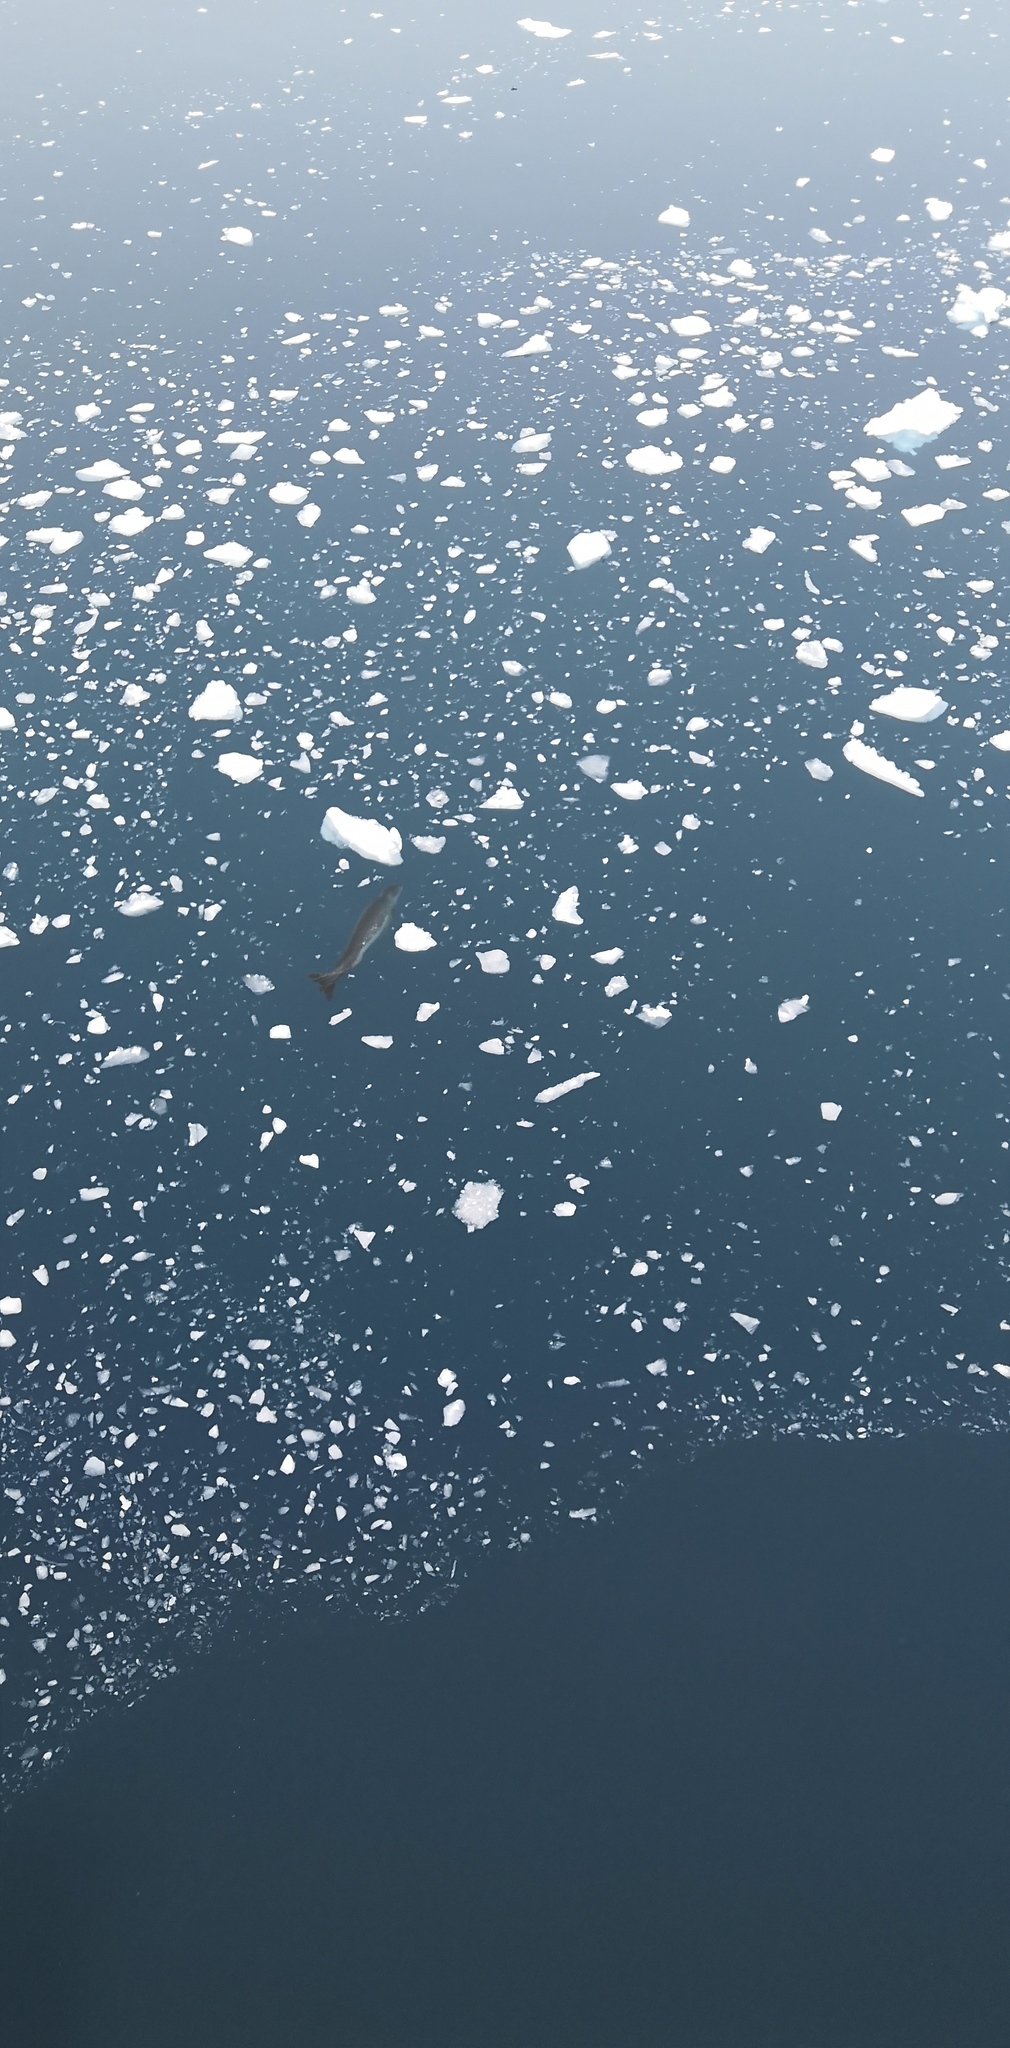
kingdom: Animalia
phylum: Chordata
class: Mammalia
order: Carnivora
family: Phocidae
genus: Hydrurga
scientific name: Hydrurga leptonyx
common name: Leopard seal
